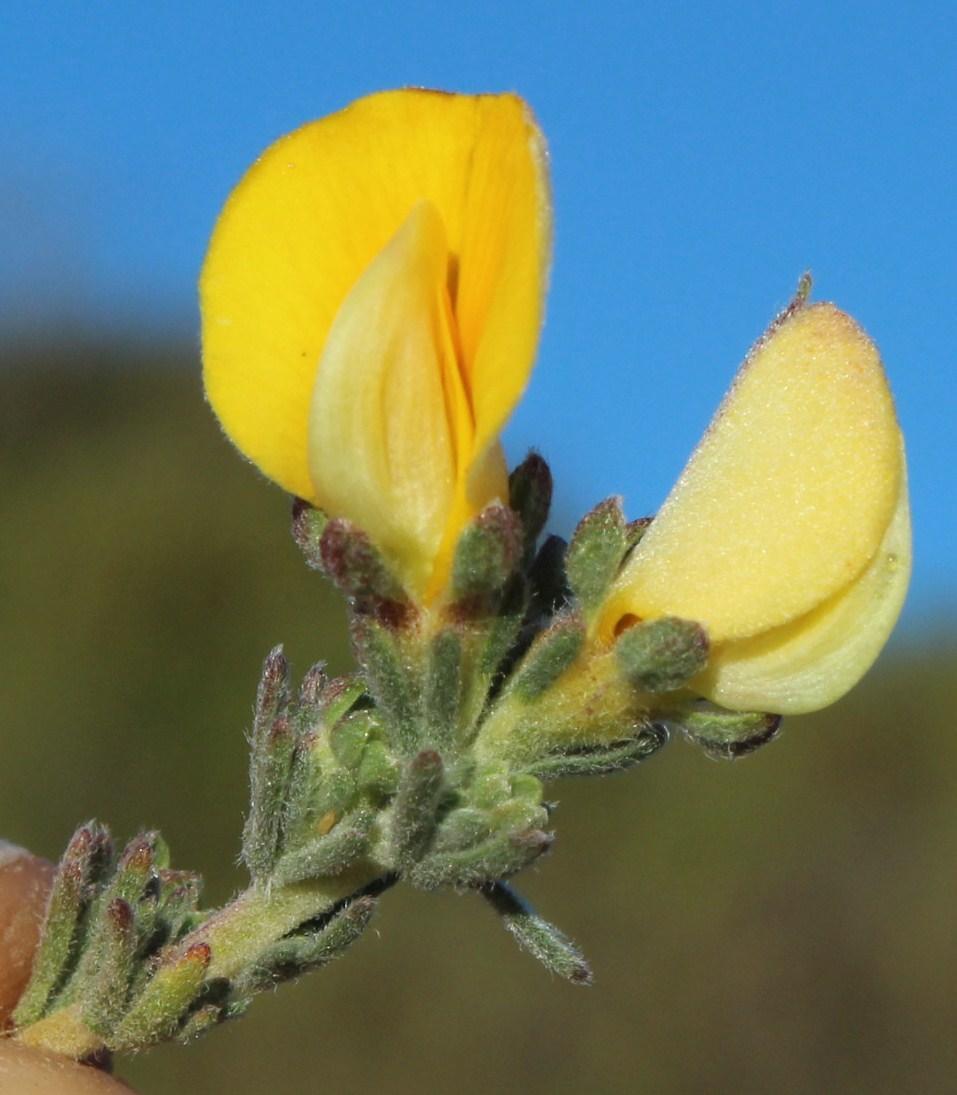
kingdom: Plantae
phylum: Tracheophyta
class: Magnoliopsida
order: Fabales
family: Fabaceae
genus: Aspalathus
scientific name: Aspalathus cymbiformis
